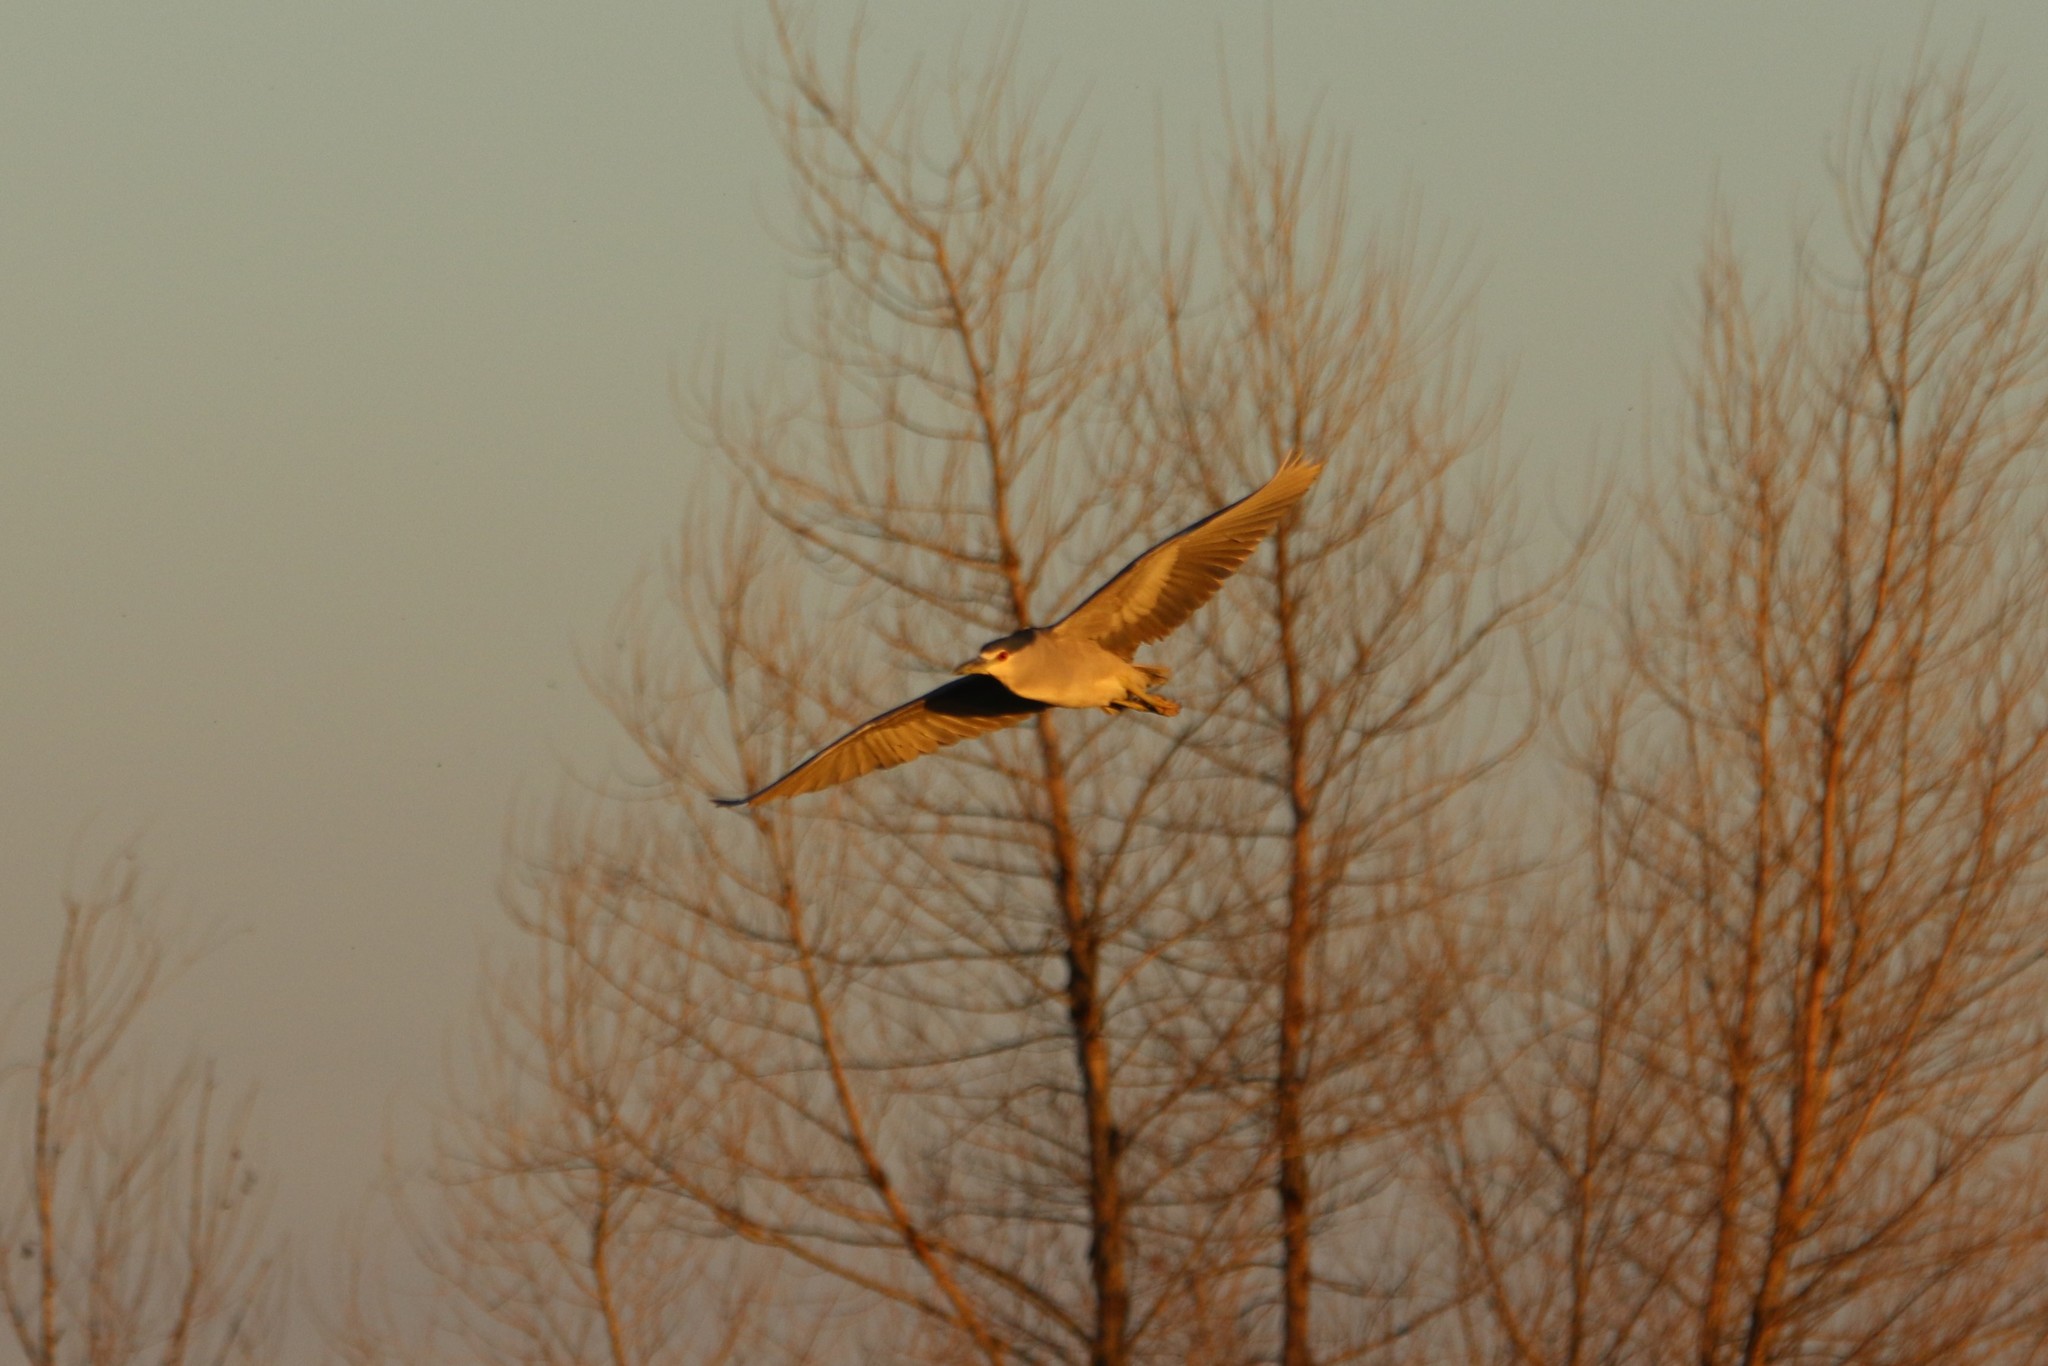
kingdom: Animalia
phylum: Chordata
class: Aves
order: Pelecaniformes
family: Ardeidae
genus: Nycticorax
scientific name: Nycticorax nycticorax
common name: Black-crowned night heron
